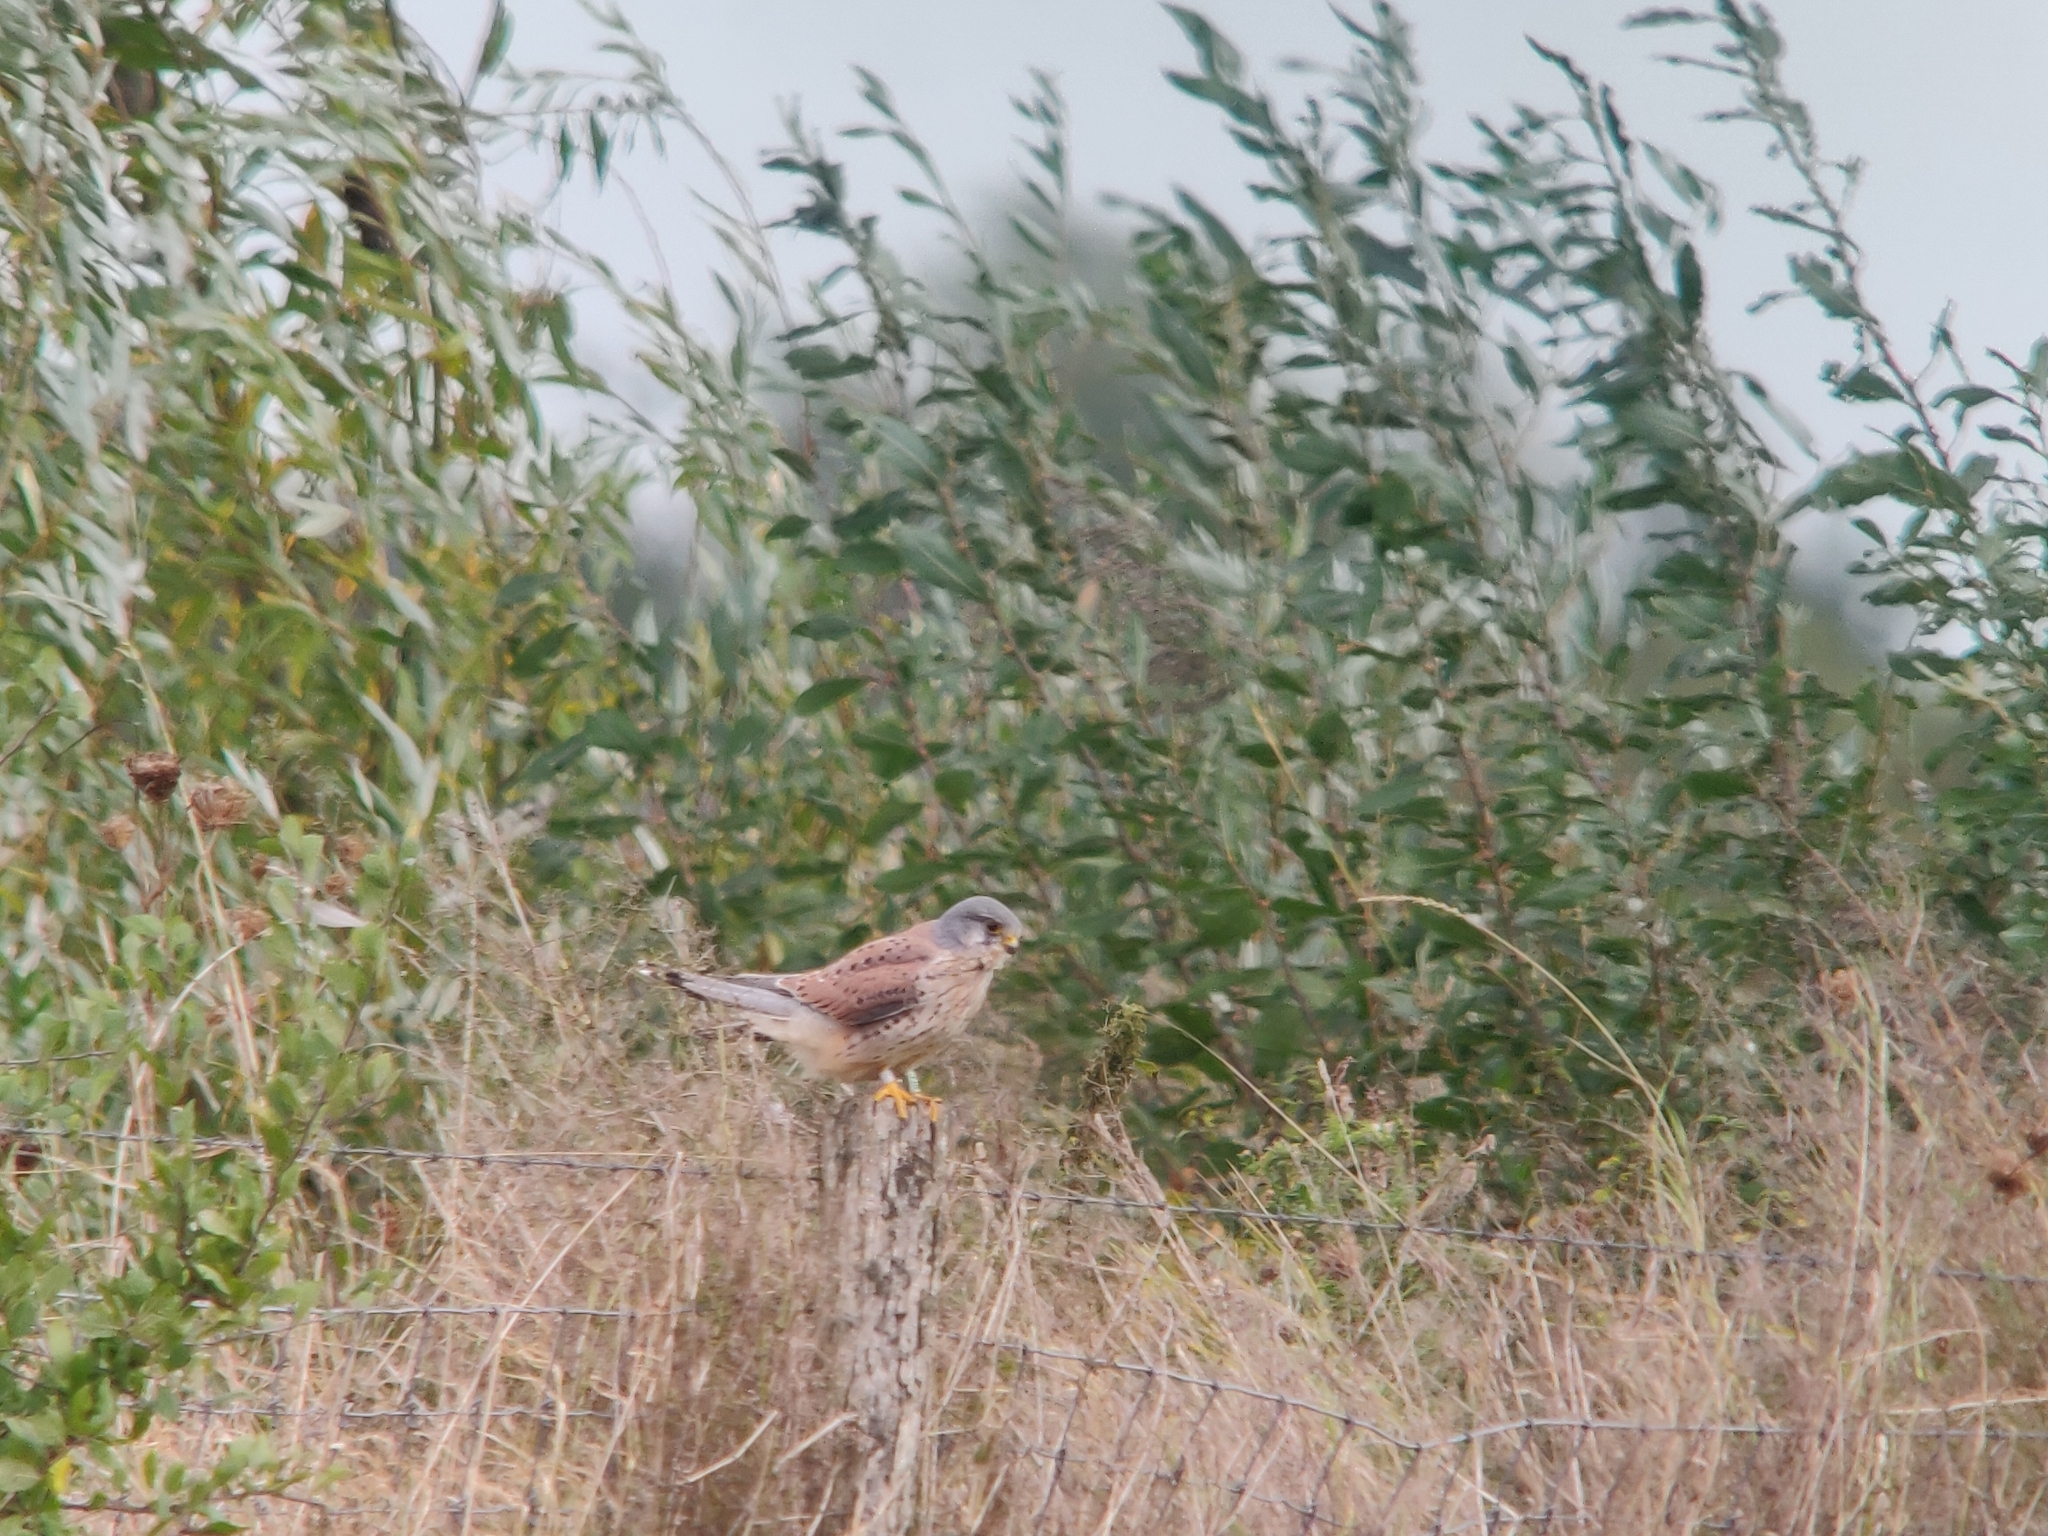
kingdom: Animalia
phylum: Chordata
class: Aves
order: Falconiformes
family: Falconidae
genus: Falco
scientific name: Falco tinnunculus
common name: Common kestrel
